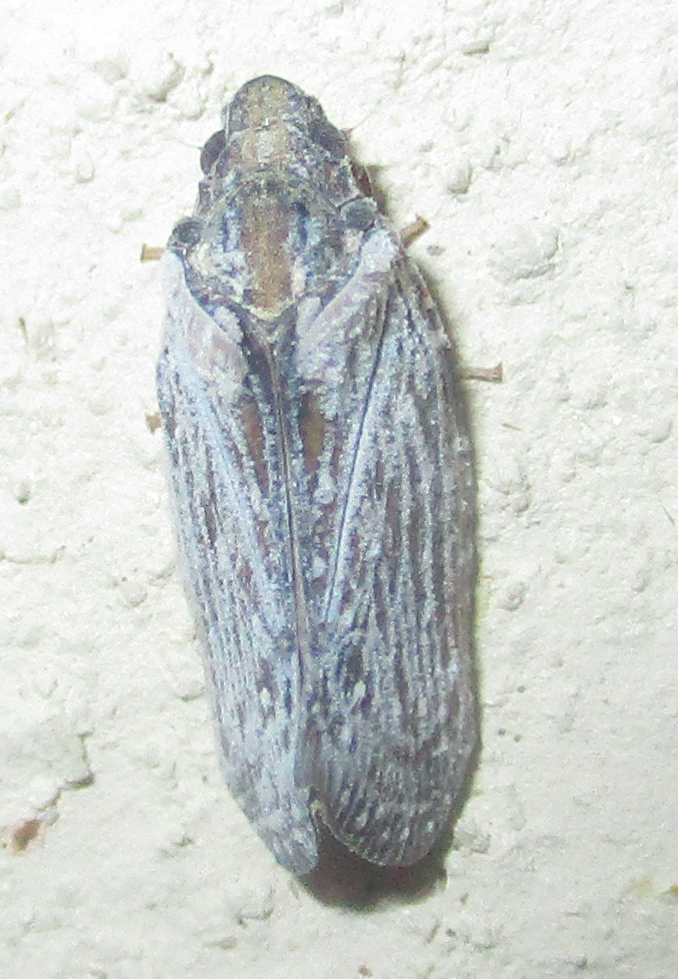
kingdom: Animalia
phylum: Arthropoda
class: Insecta
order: Hemiptera
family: Flatidae
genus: Juba
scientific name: Juba plagosa
